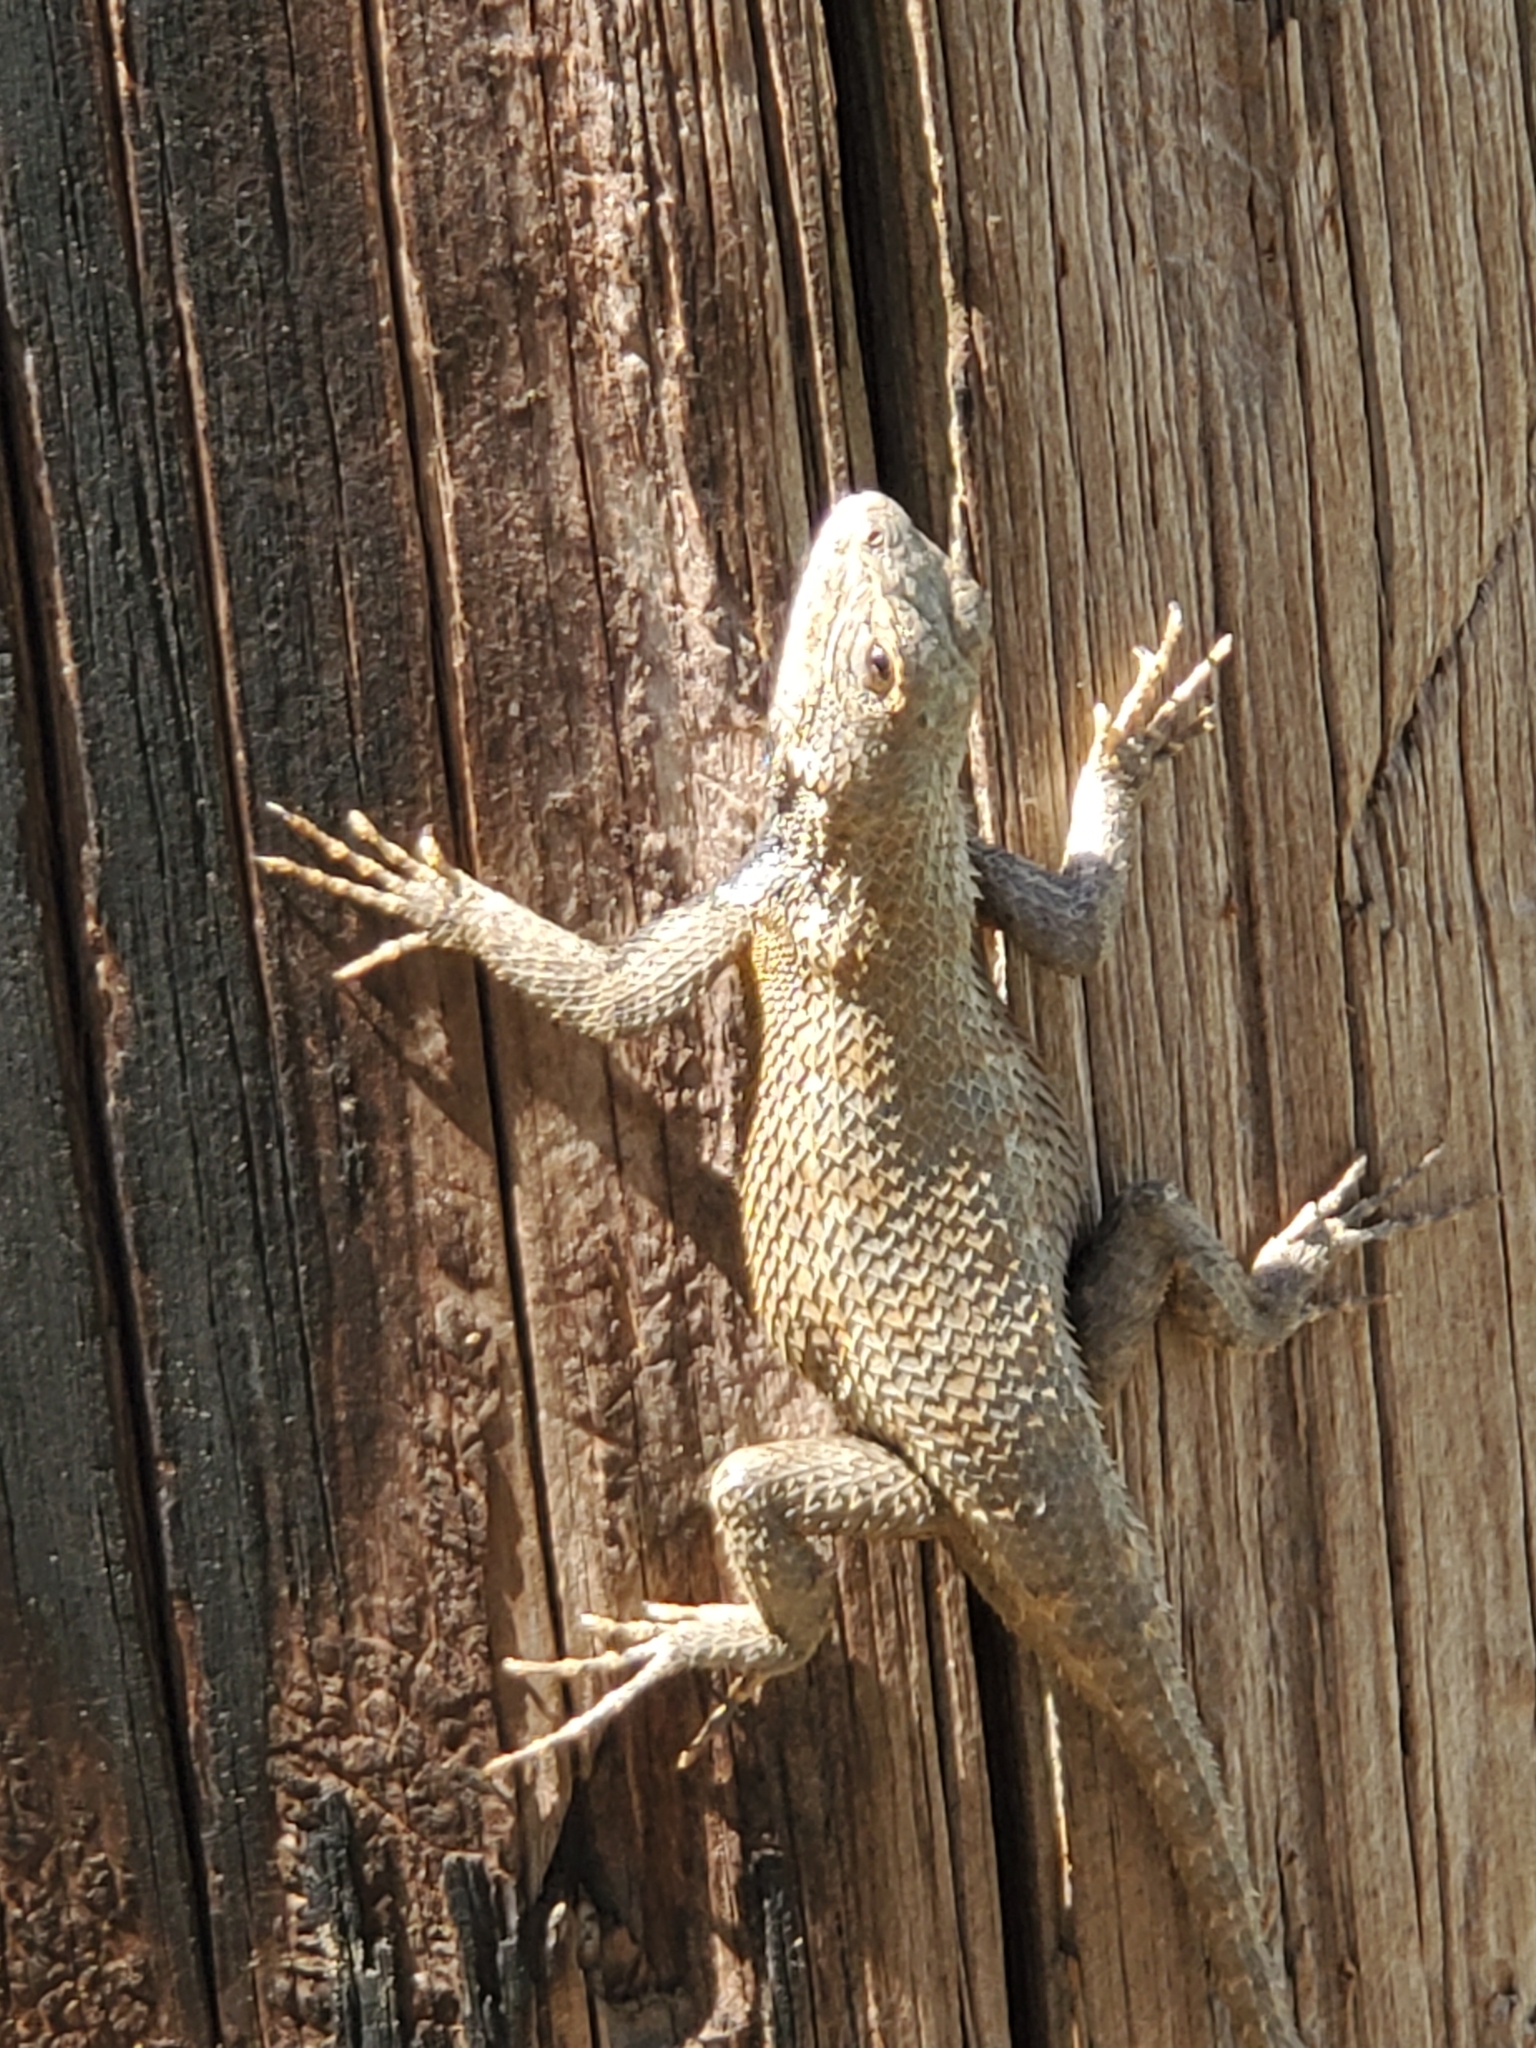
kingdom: Animalia
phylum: Chordata
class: Squamata
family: Phrynosomatidae
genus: Sceloporus
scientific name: Sceloporus undulatus
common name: Eastern fence lizard
